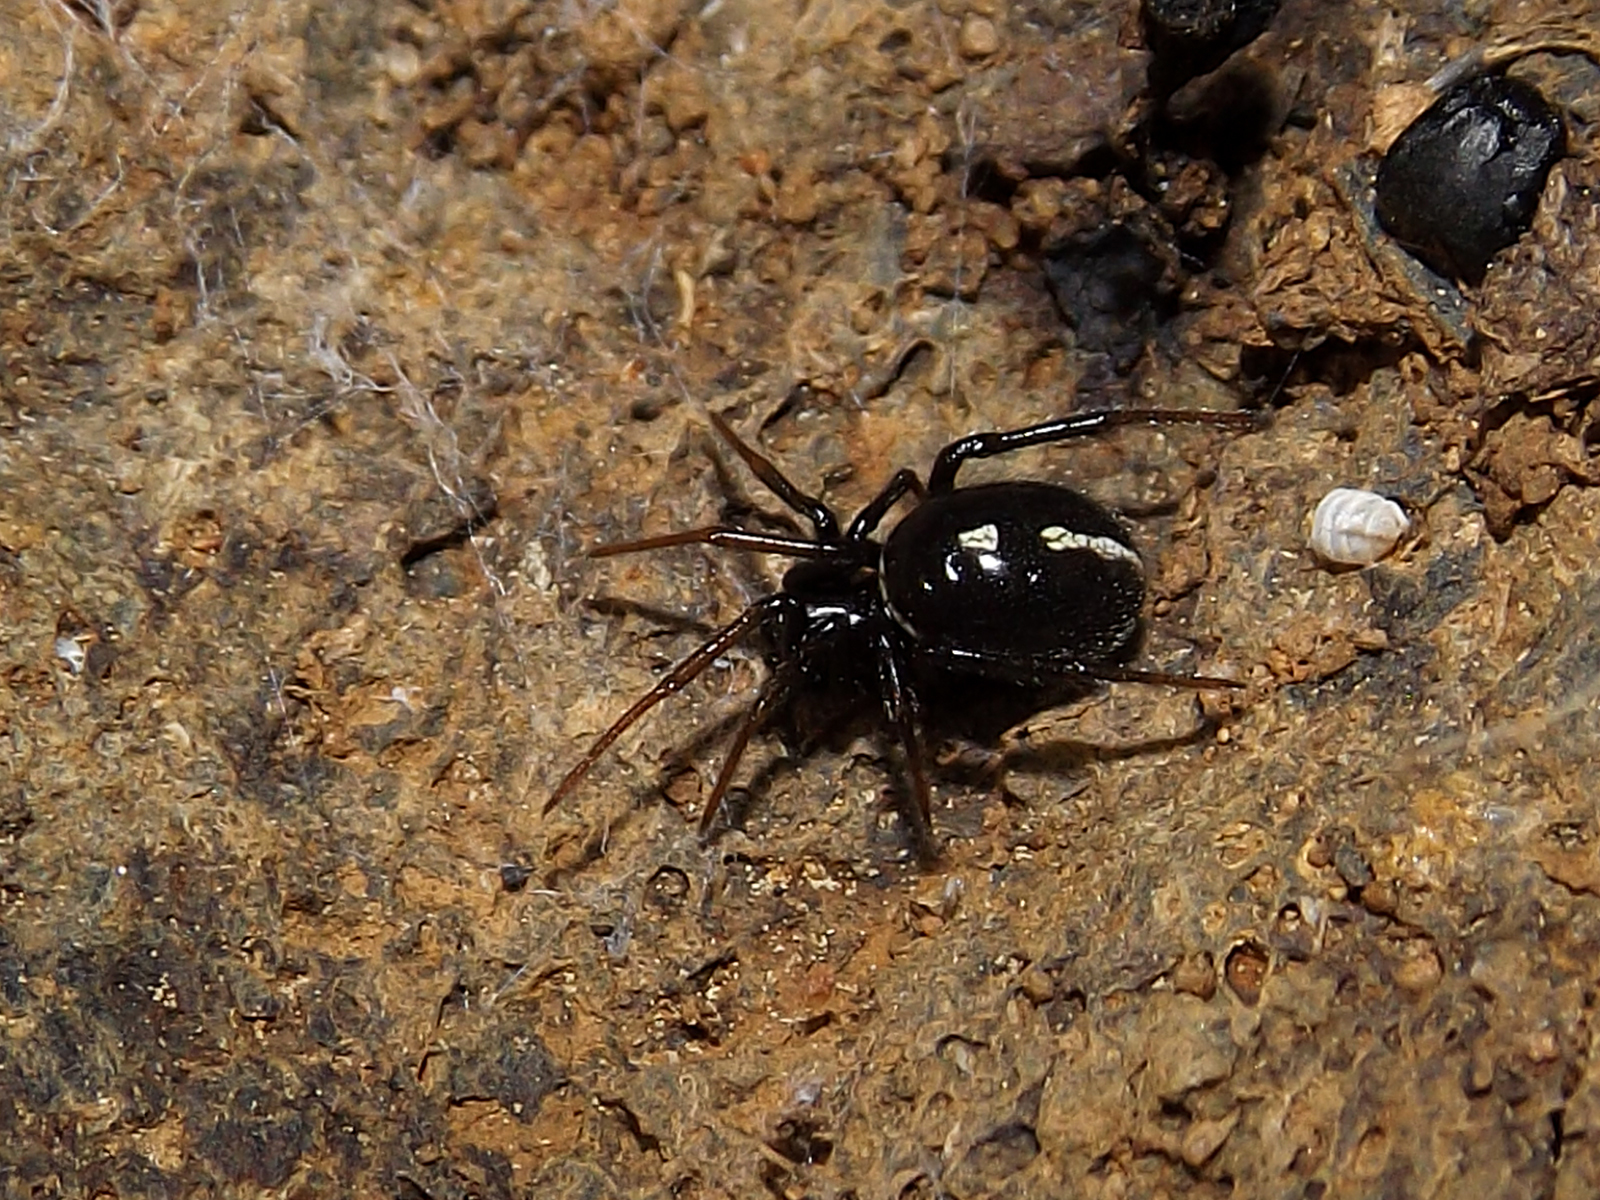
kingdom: Animalia
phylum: Arthropoda
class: Arachnida
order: Araneae
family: Theridiidae
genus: Steatoda
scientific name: Steatoda ancorata
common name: Cobweb spiders
